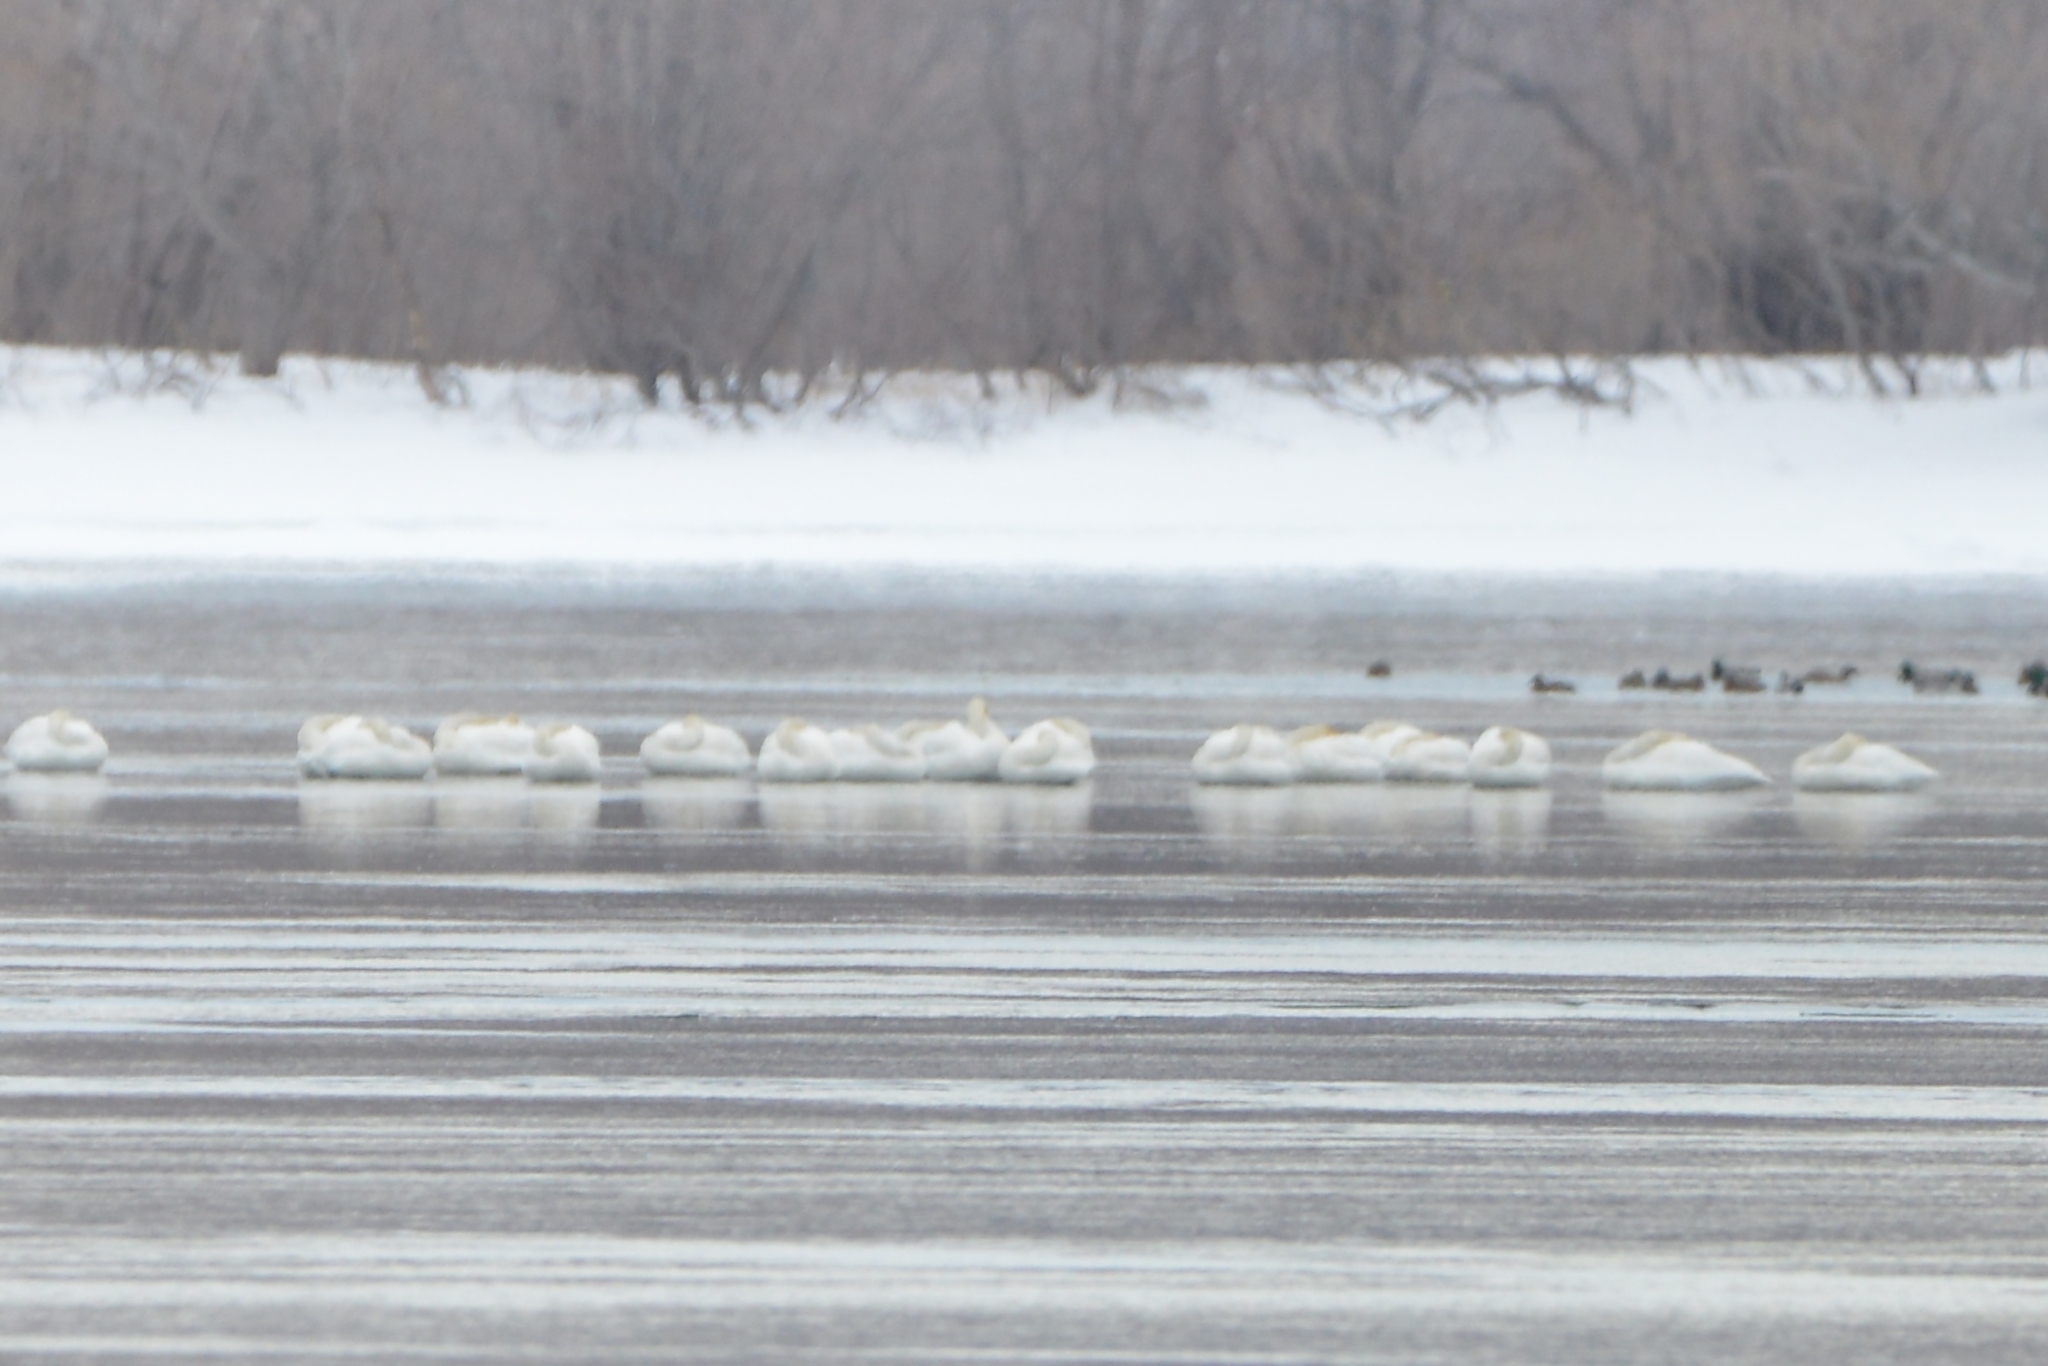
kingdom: Animalia
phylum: Chordata
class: Aves
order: Anseriformes
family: Anatidae
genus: Cygnus
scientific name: Cygnus cygnus
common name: Whooper swan
